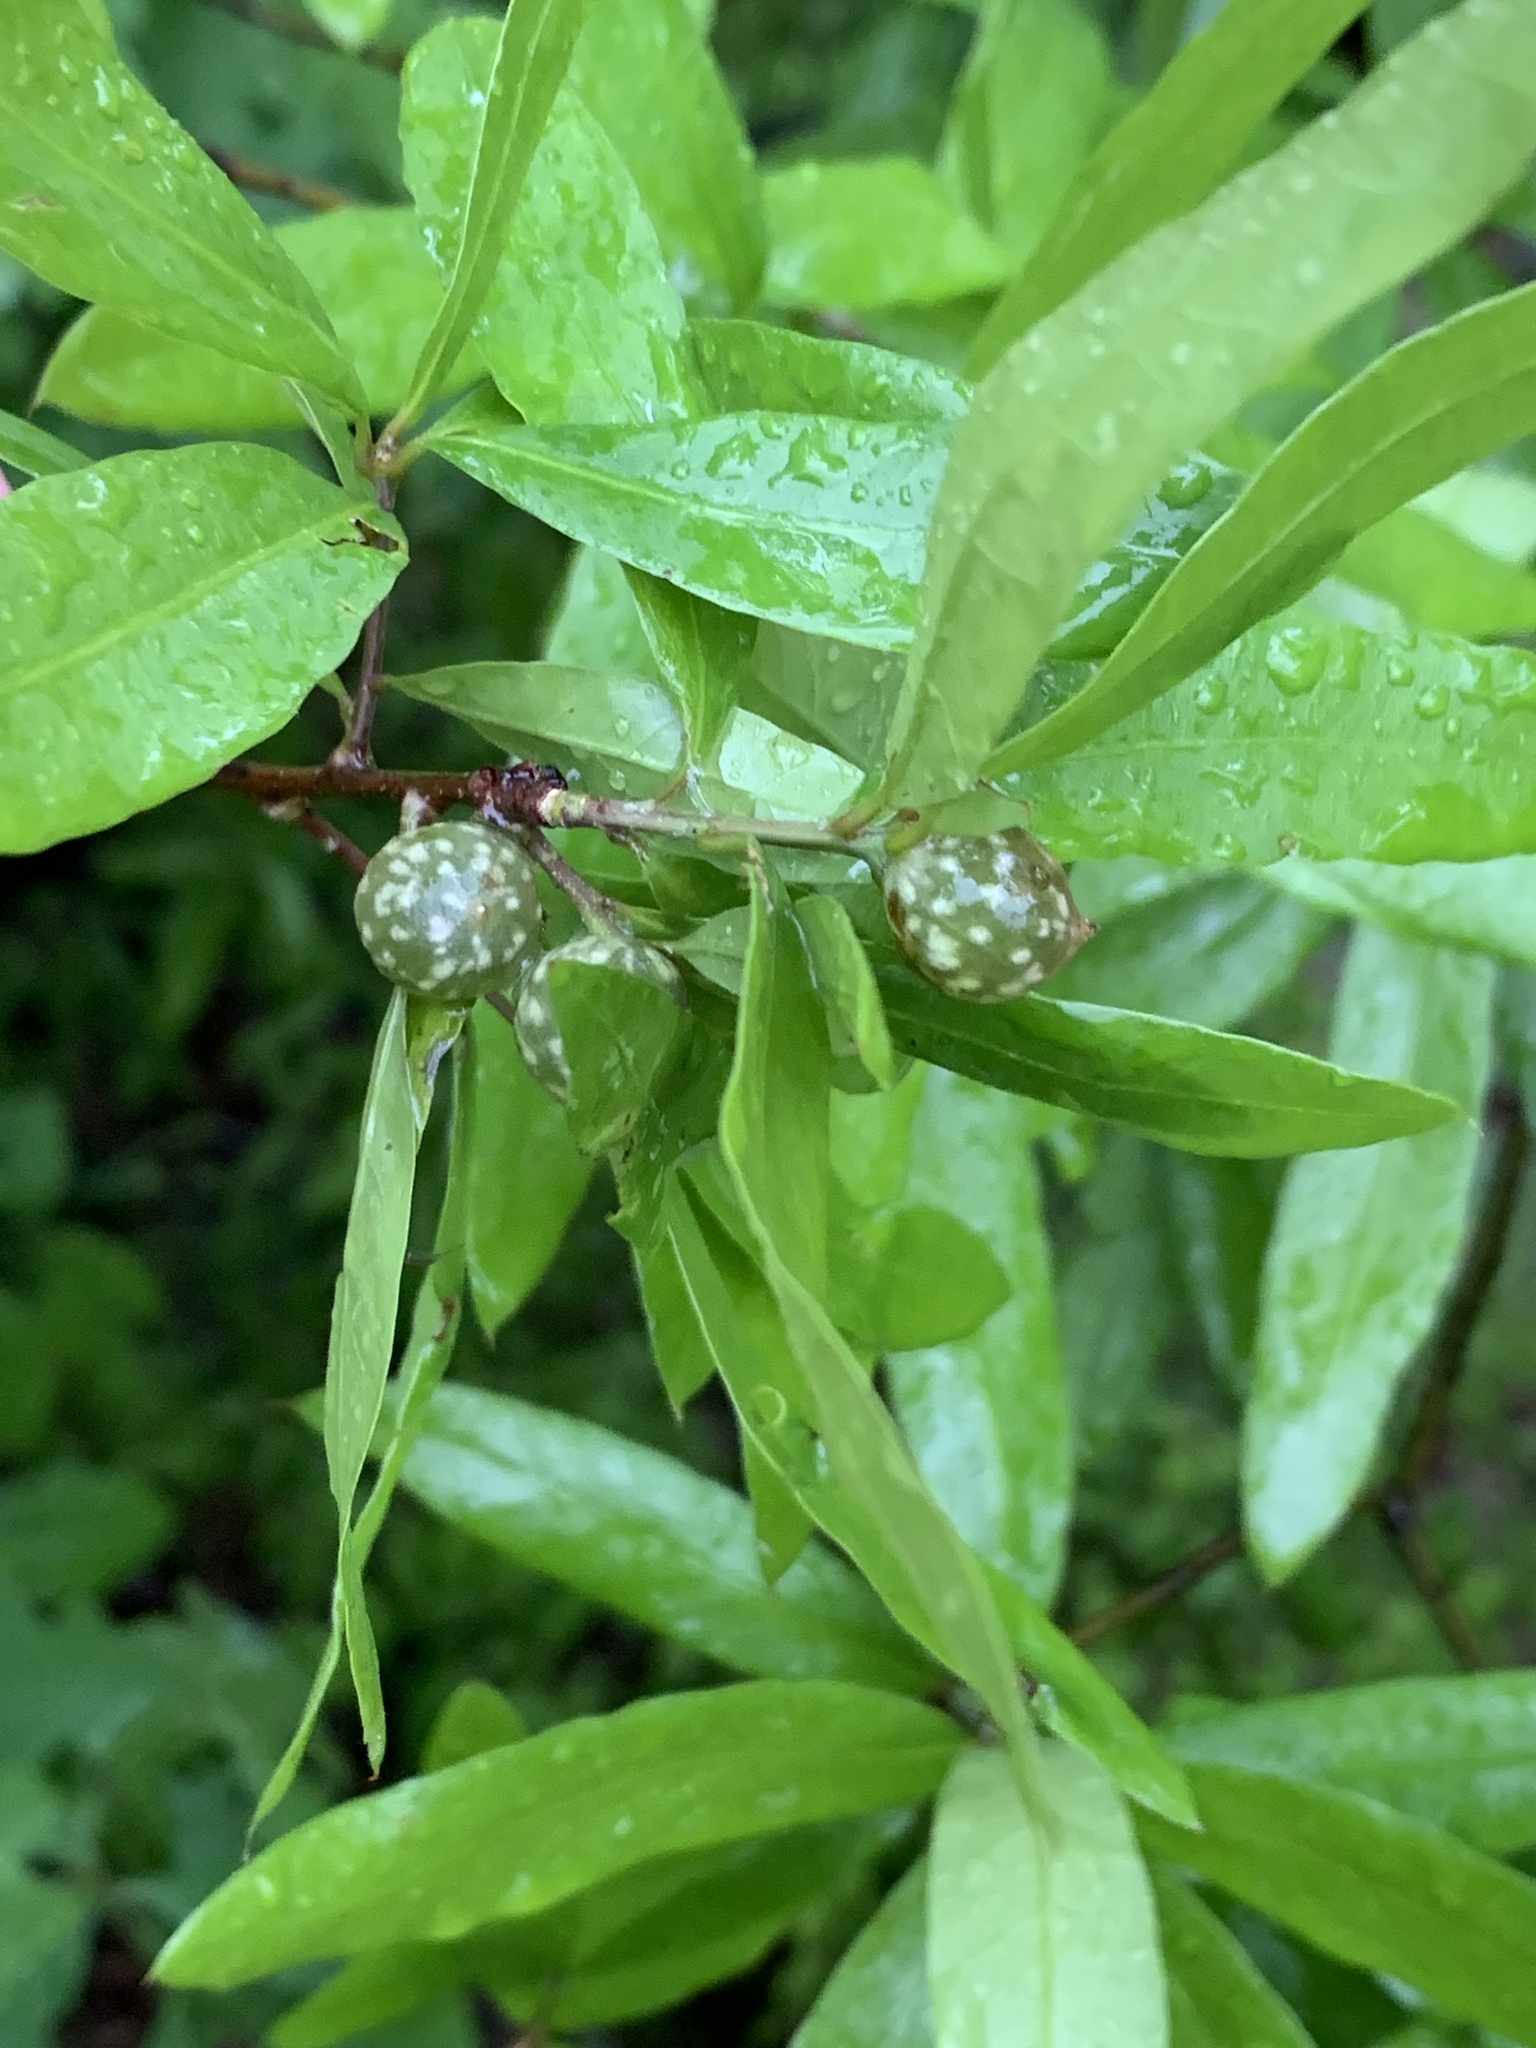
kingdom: Animalia
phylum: Arthropoda
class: Insecta
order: Hymenoptera
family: Cynipidae
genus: Dryocosmus
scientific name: Dryocosmus
